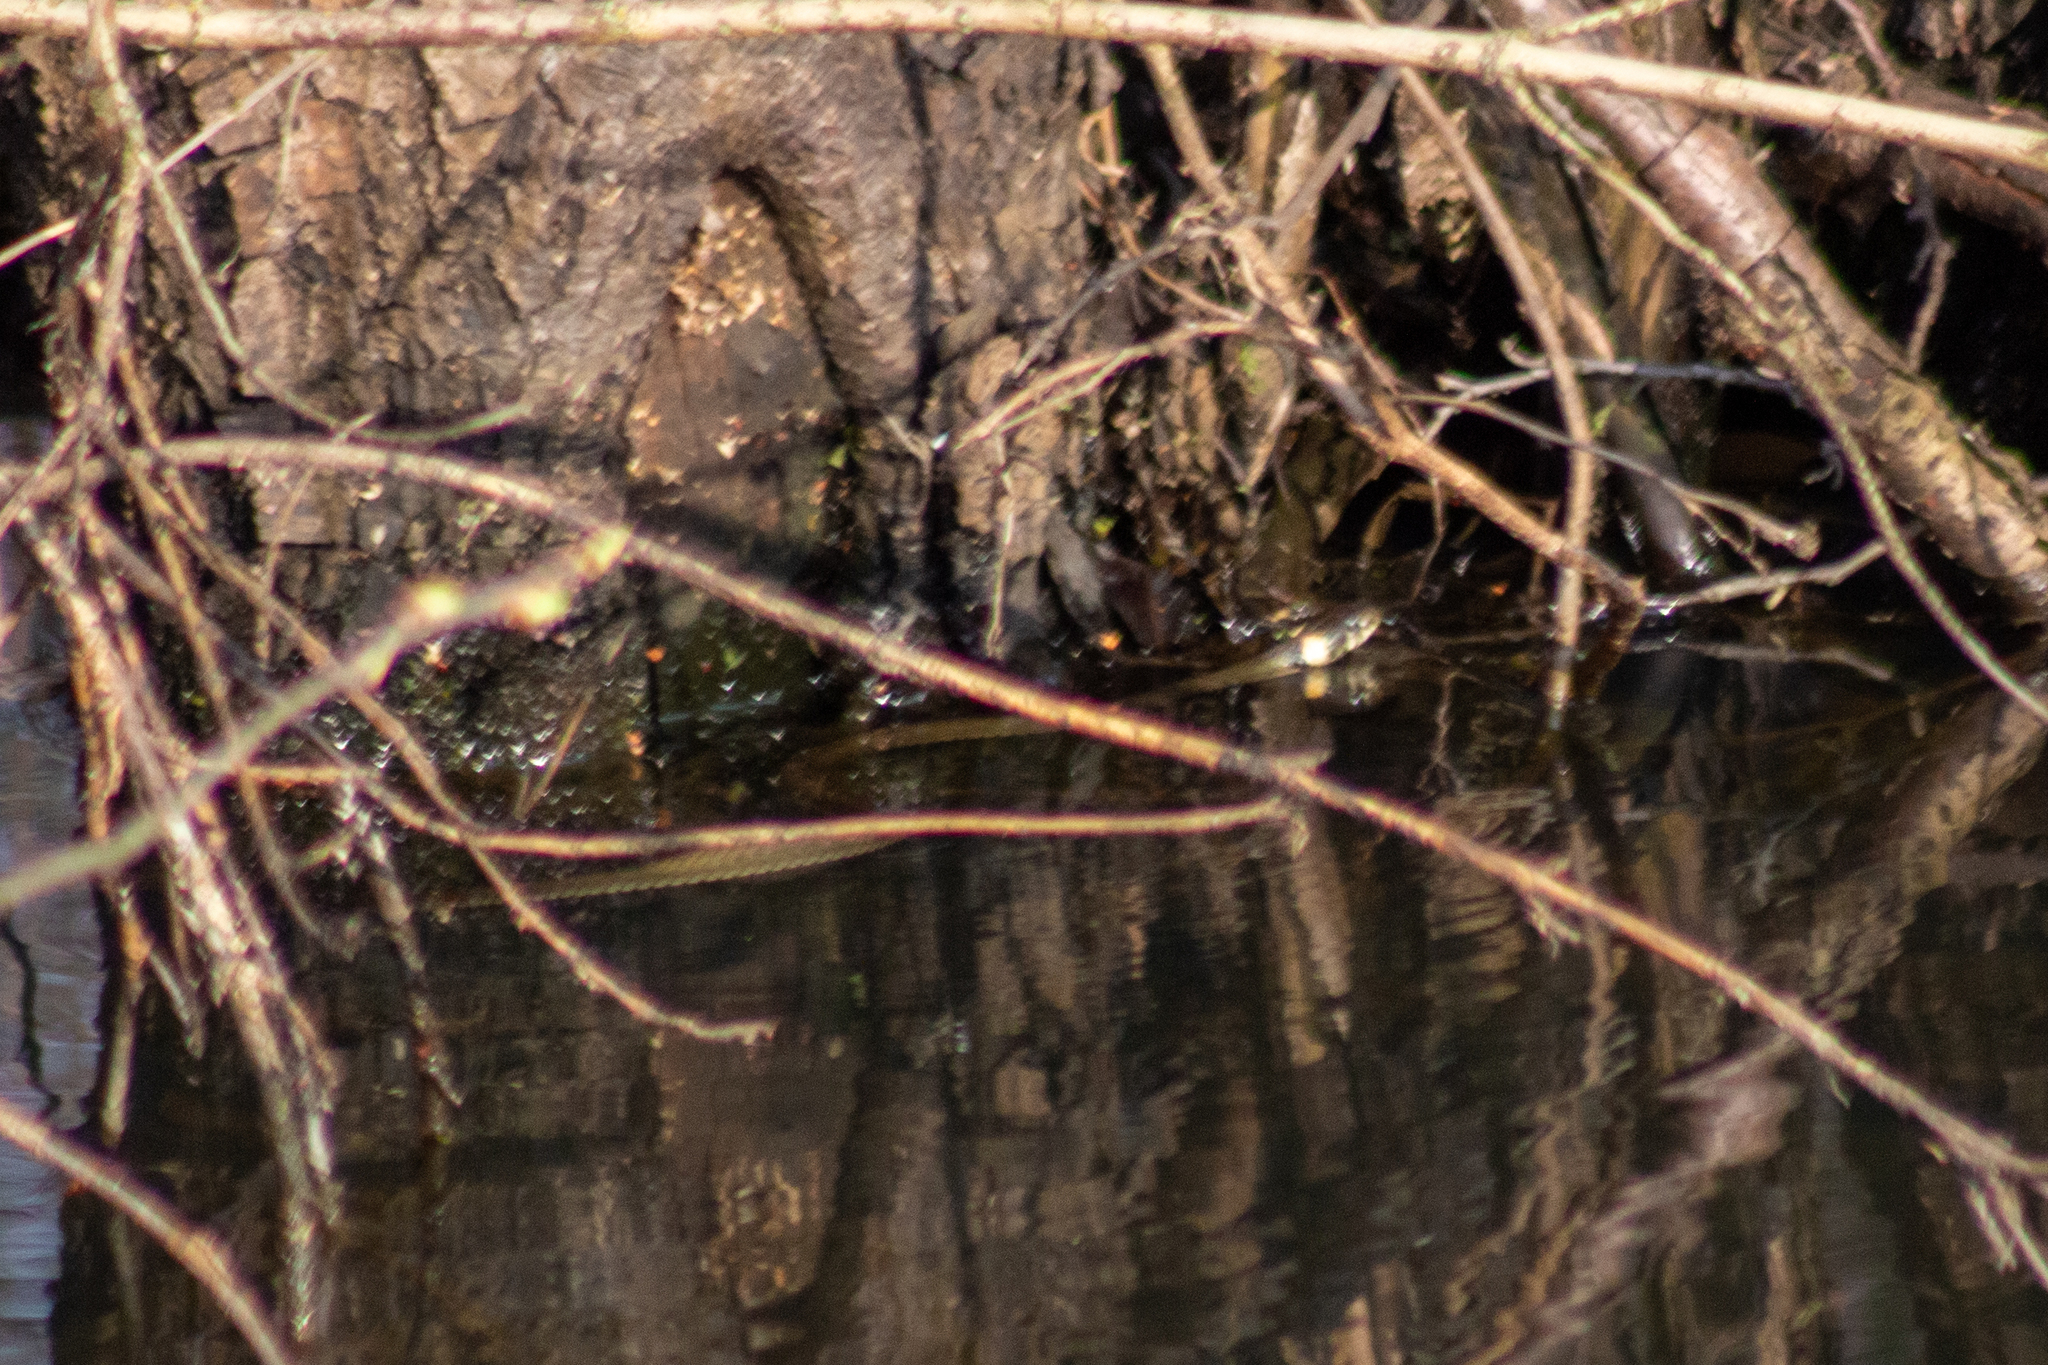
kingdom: Animalia
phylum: Chordata
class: Squamata
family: Colubridae
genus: Natrix
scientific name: Natrix natrix
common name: Grass snake
